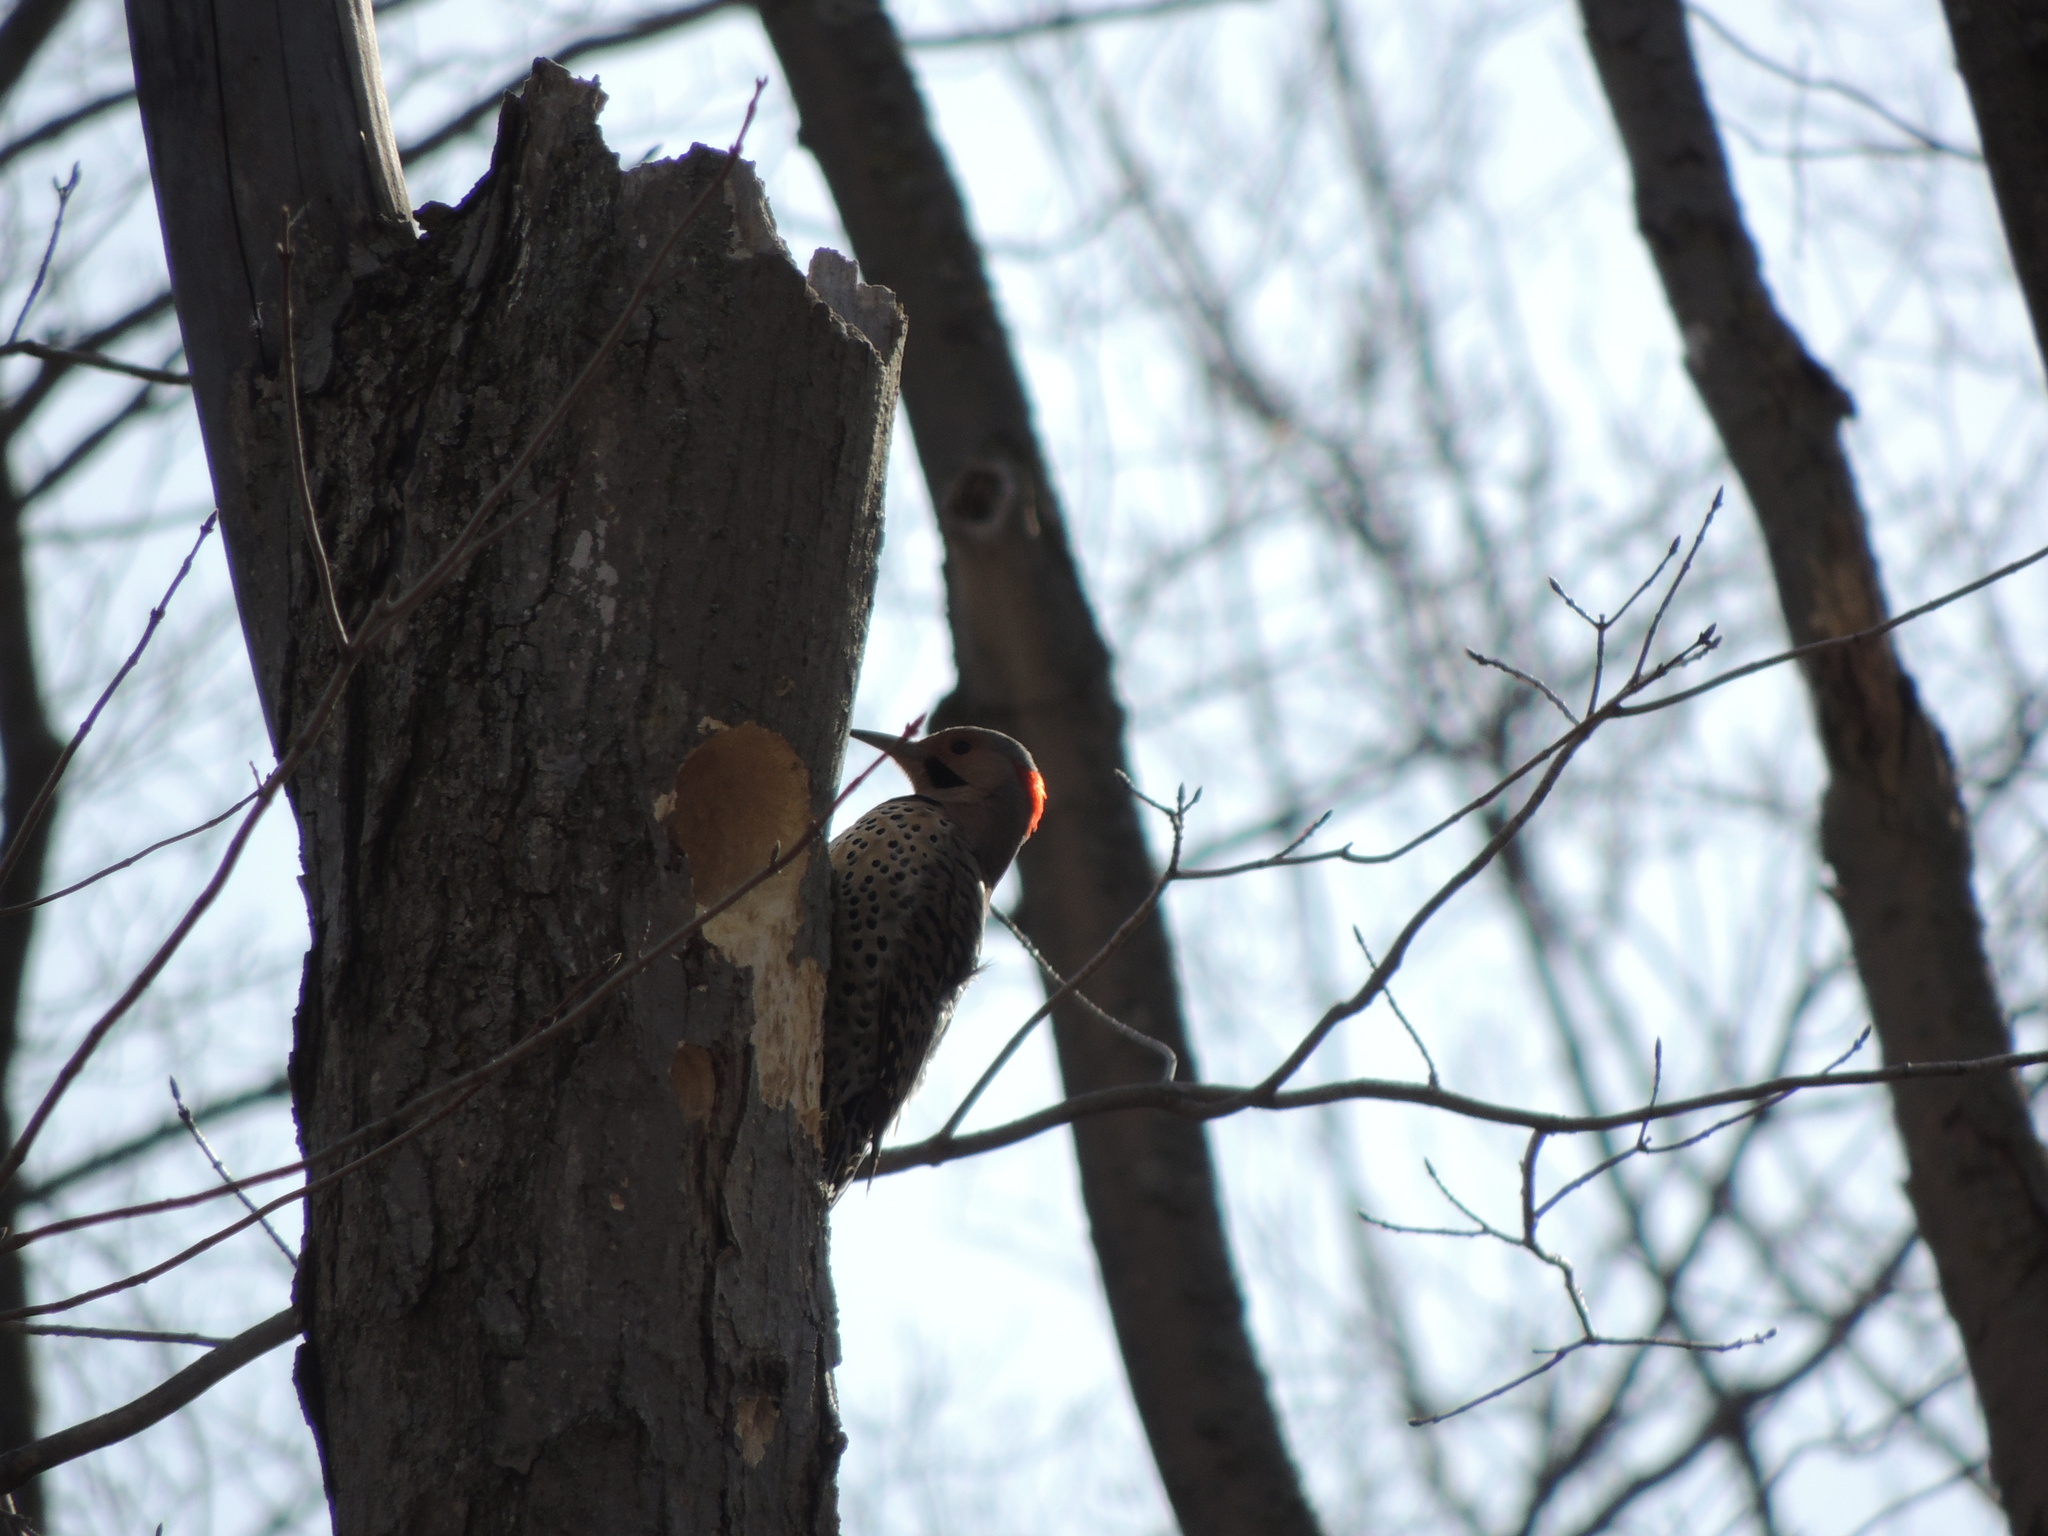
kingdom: Animalia
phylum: Chordata
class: Aves
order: Piciformes
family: Picidae
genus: Colaptes
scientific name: Colaptes auratus
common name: Northern flicker
